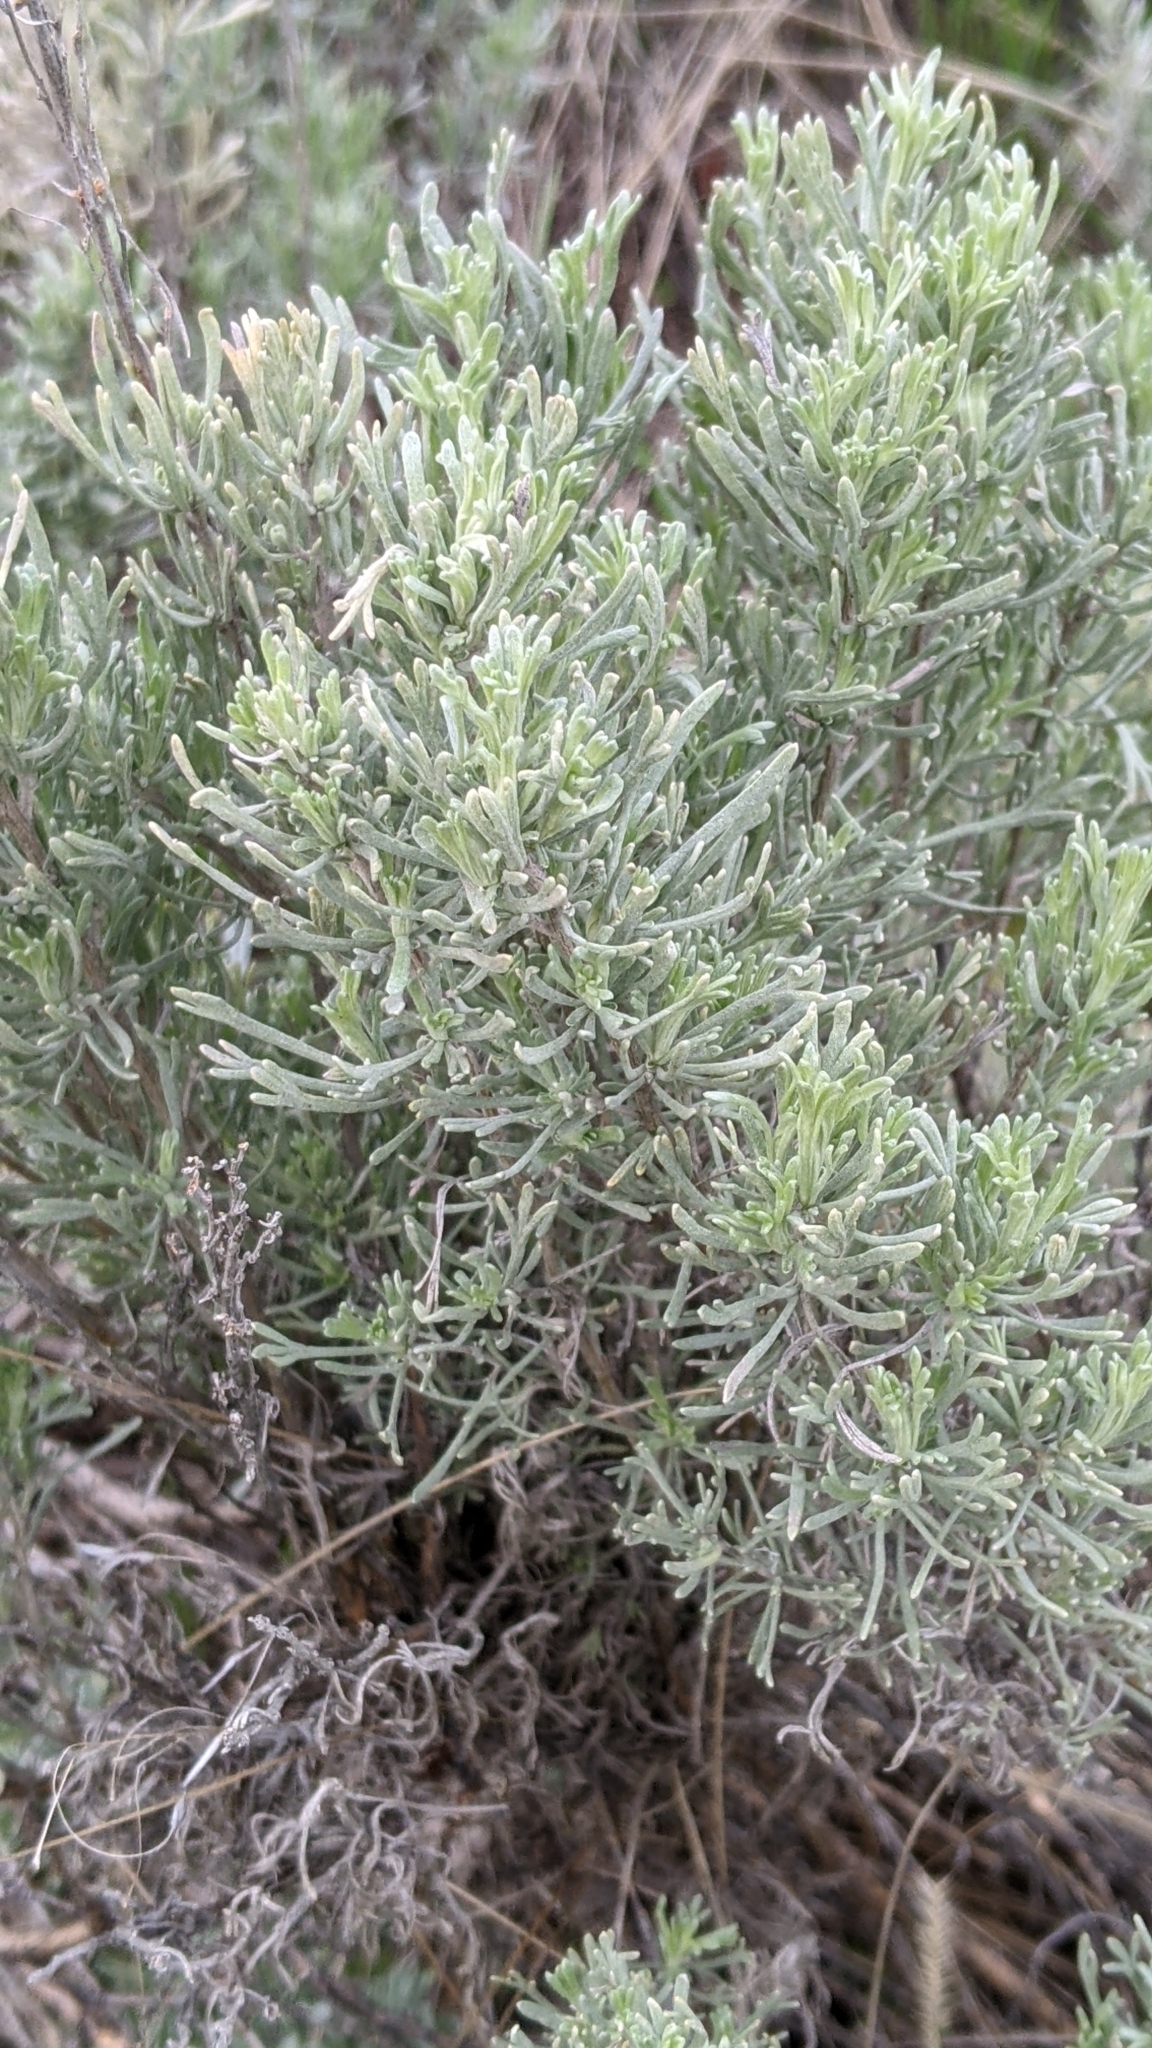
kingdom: Plantae
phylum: Tracheophyta
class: Magnoliopsida
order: Asterales
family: Asteraceae
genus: Artemisia
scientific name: Artemisia tripartita
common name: Three-tip sagebrush
